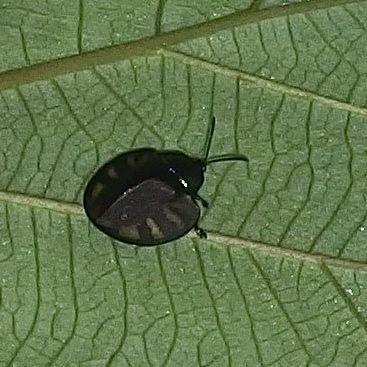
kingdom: Animalia
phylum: Arthropoda
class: Insecta
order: Coleoptera
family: Chrysomelidae
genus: Omaspides
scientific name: Omaspides collecta
